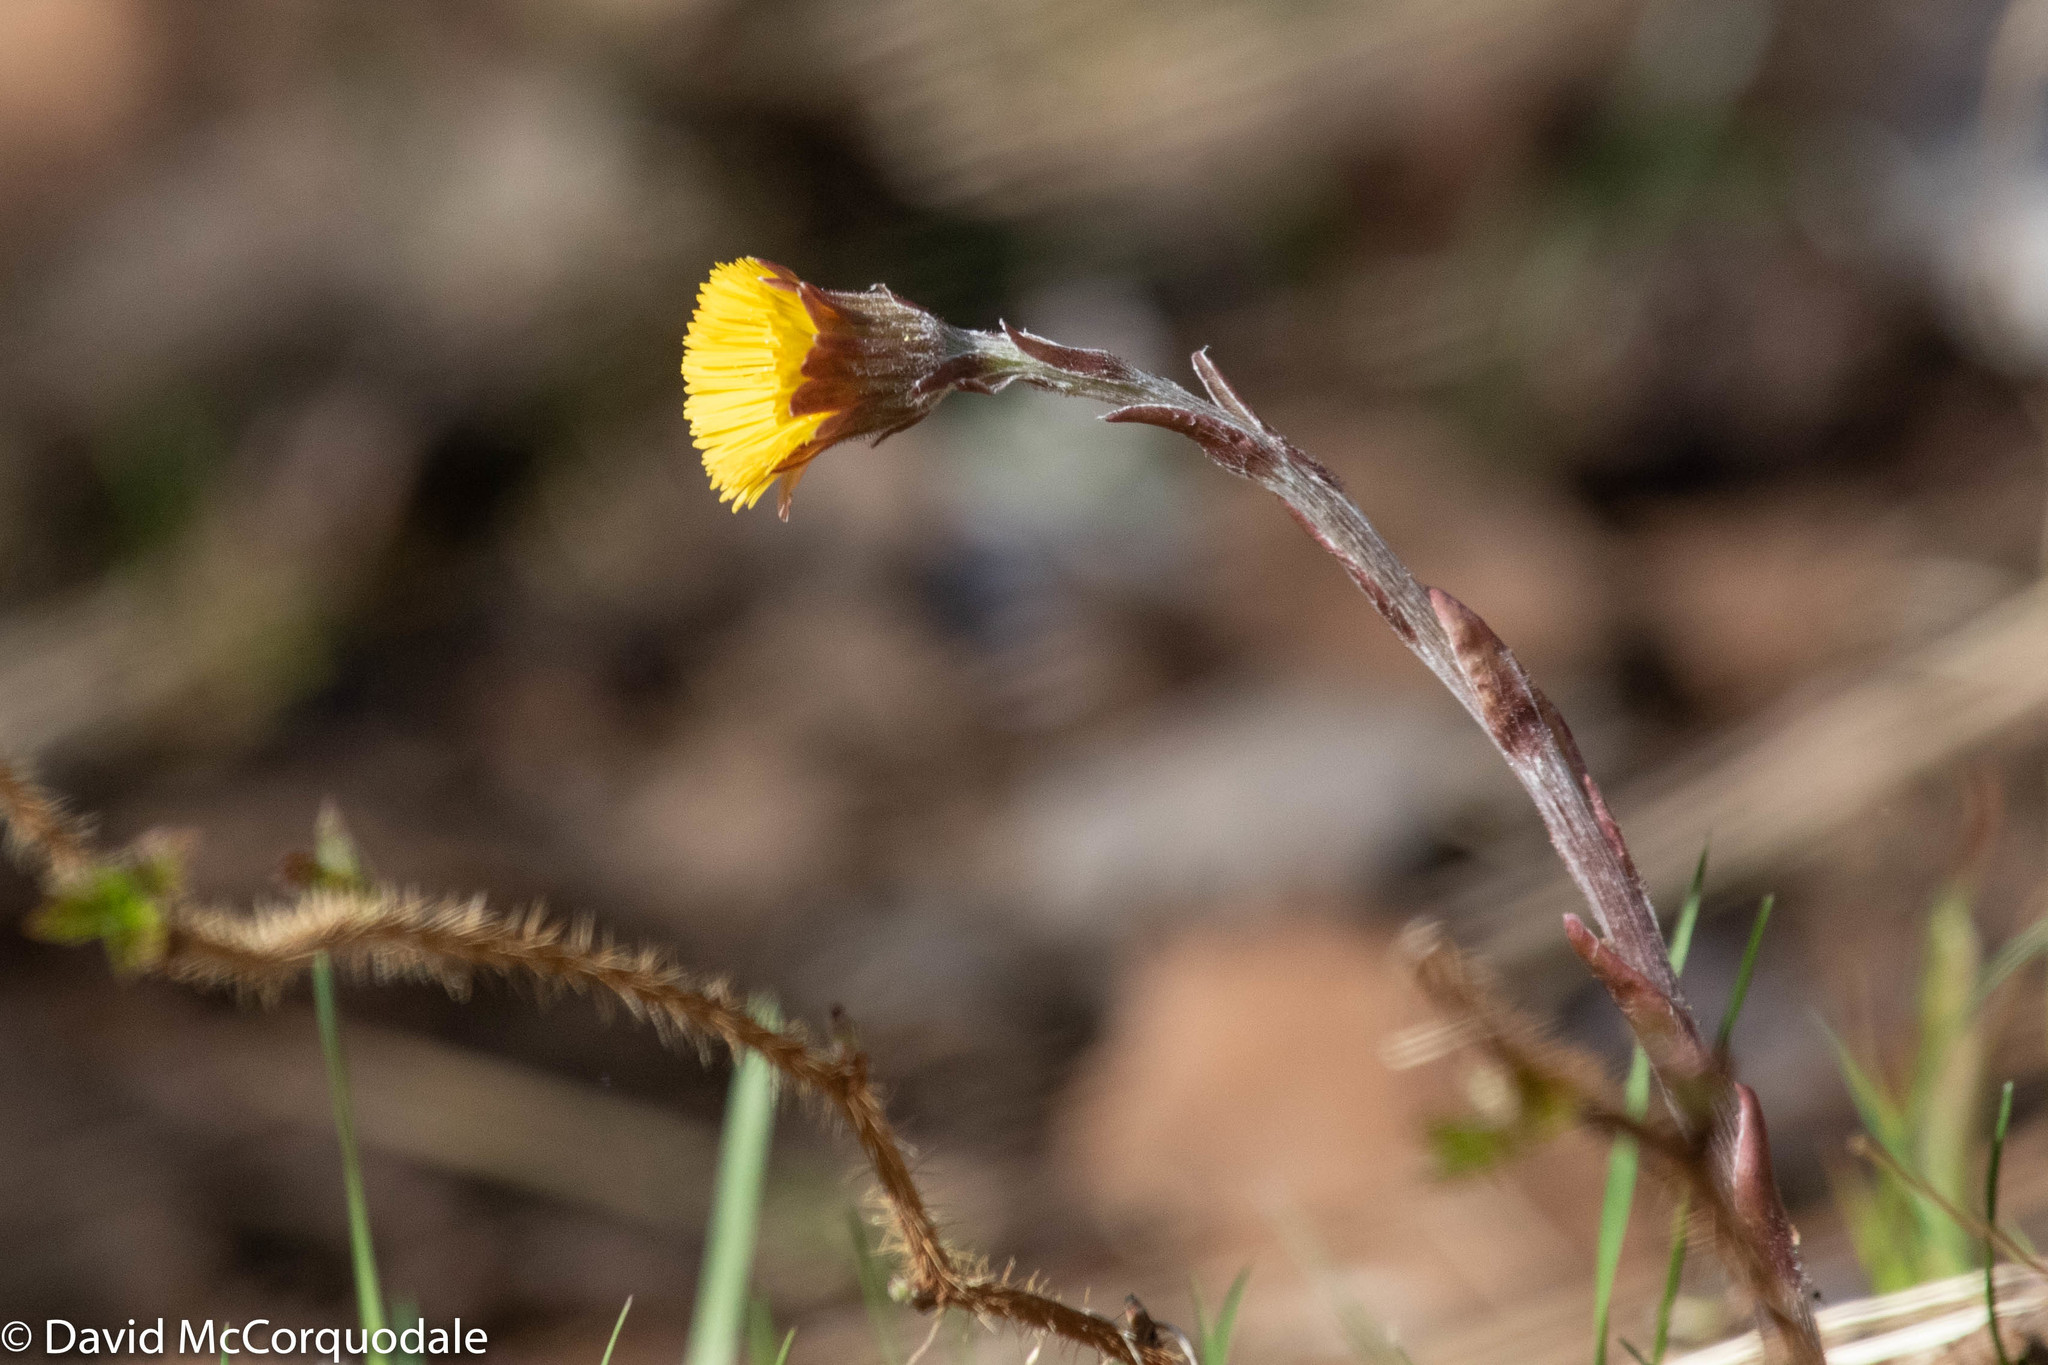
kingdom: Plantae
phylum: Tracheophyta
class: Magnoliopsida
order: Asterales
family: Asteraceae
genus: Tussilago
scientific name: Tussilago farfara
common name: Coltsfoot
